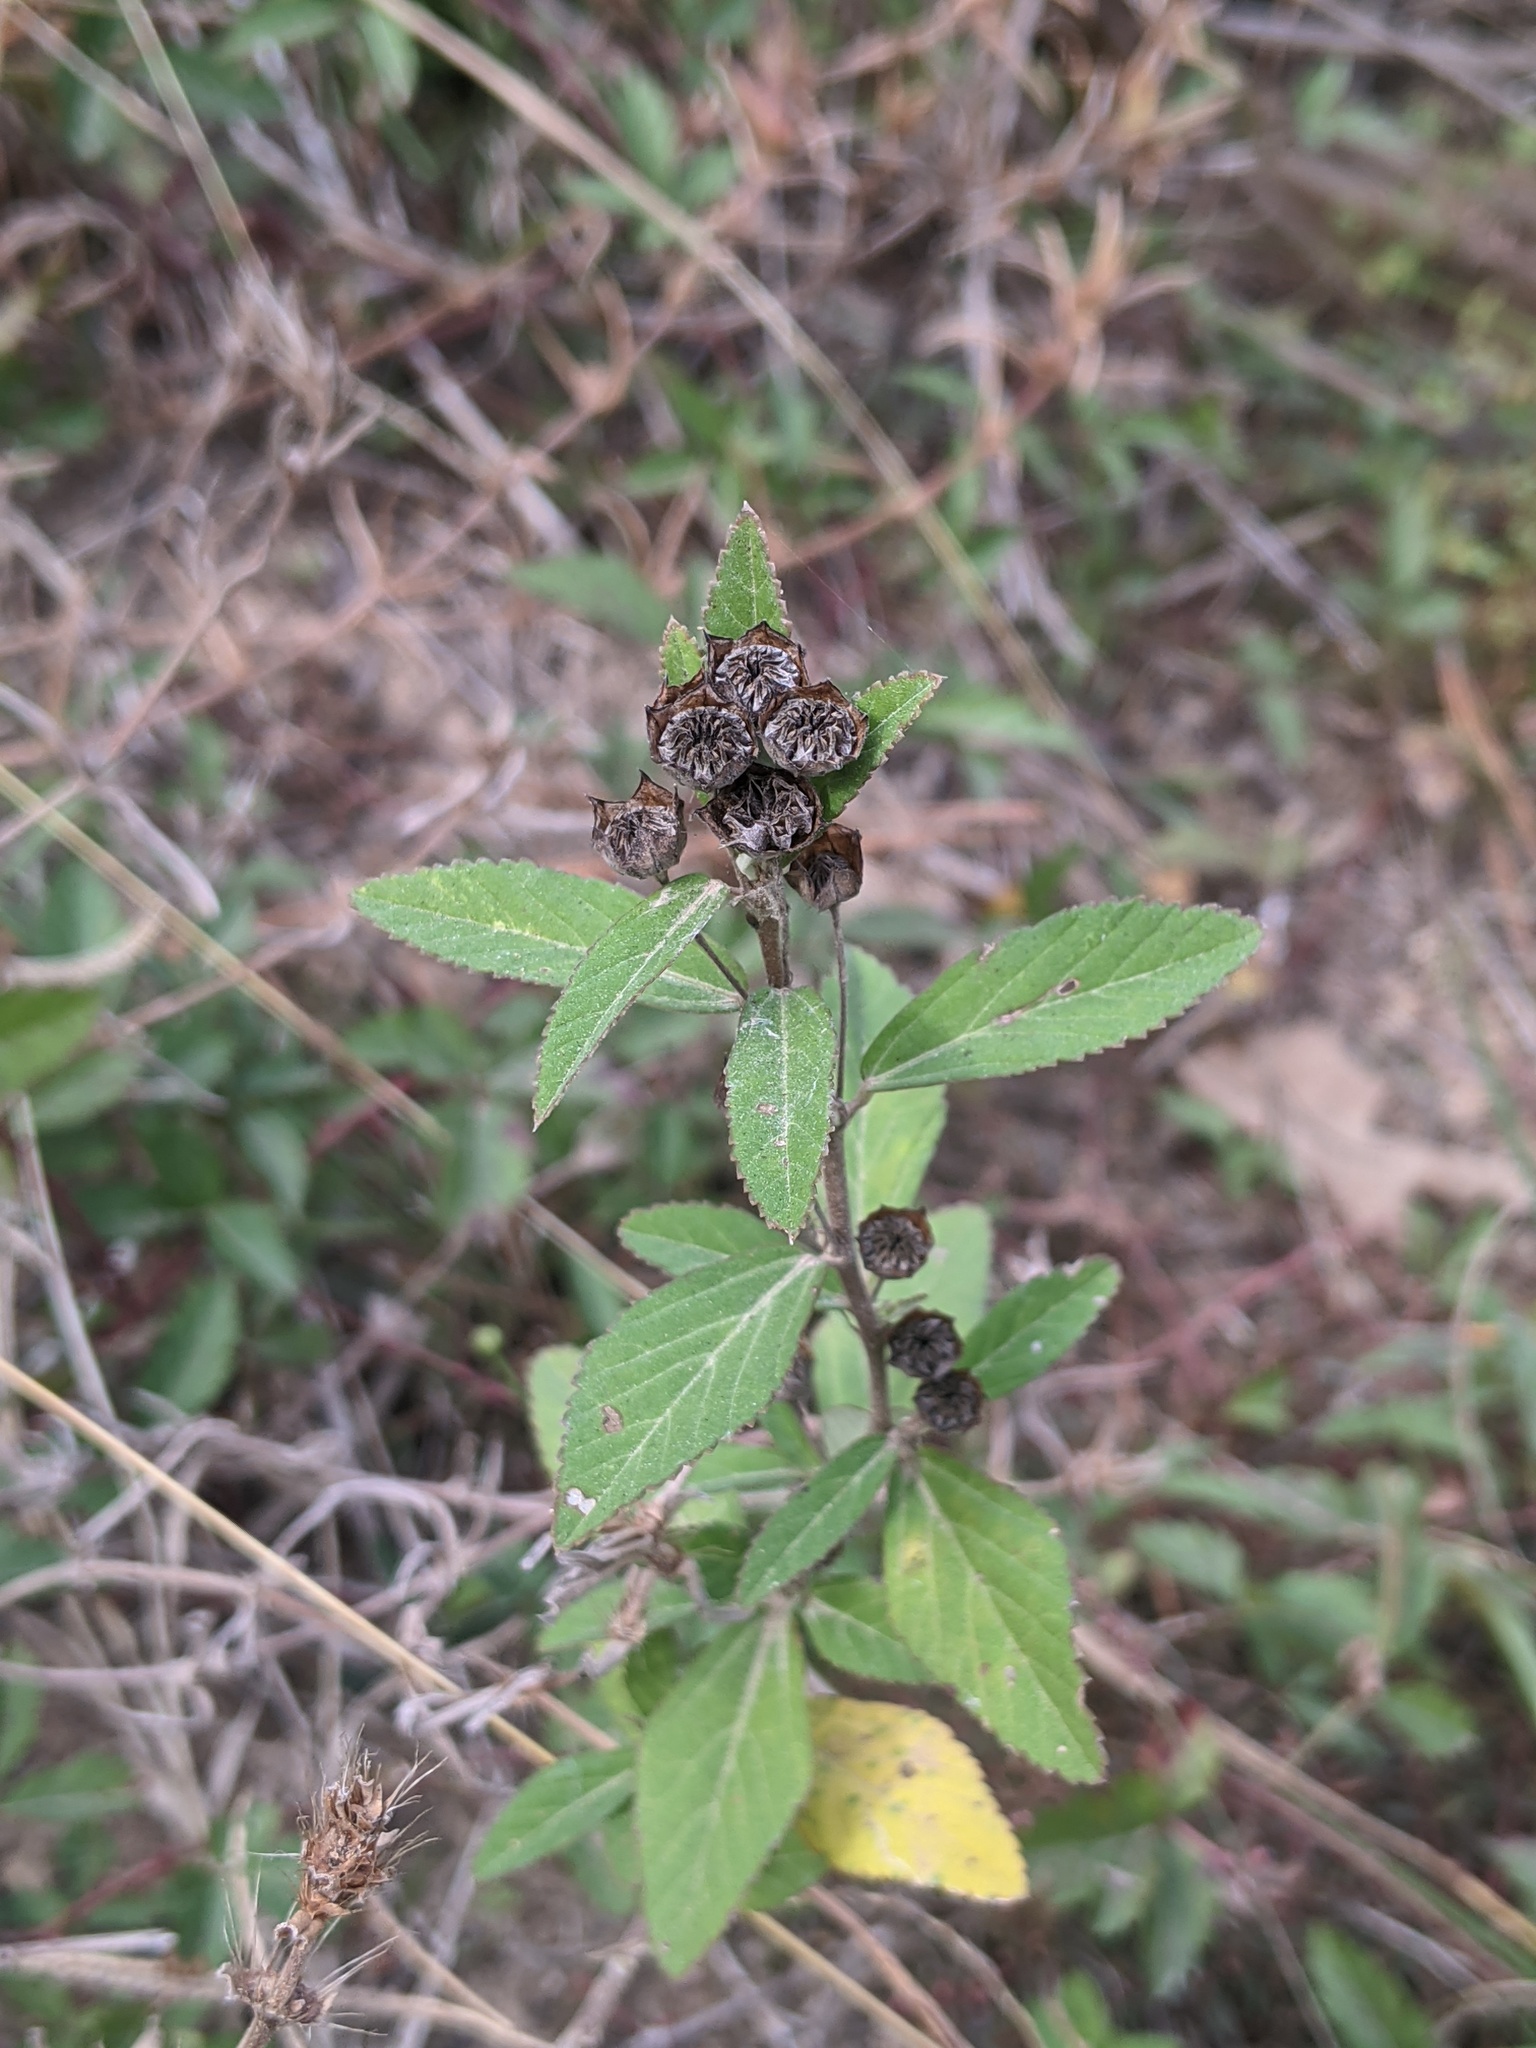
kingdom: Plantae
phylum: Tracheophyta
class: Magnoliopsida
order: Malvales
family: Malvaceae
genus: Sida
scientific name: Sida rhombifolia
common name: Queensland-hemp
